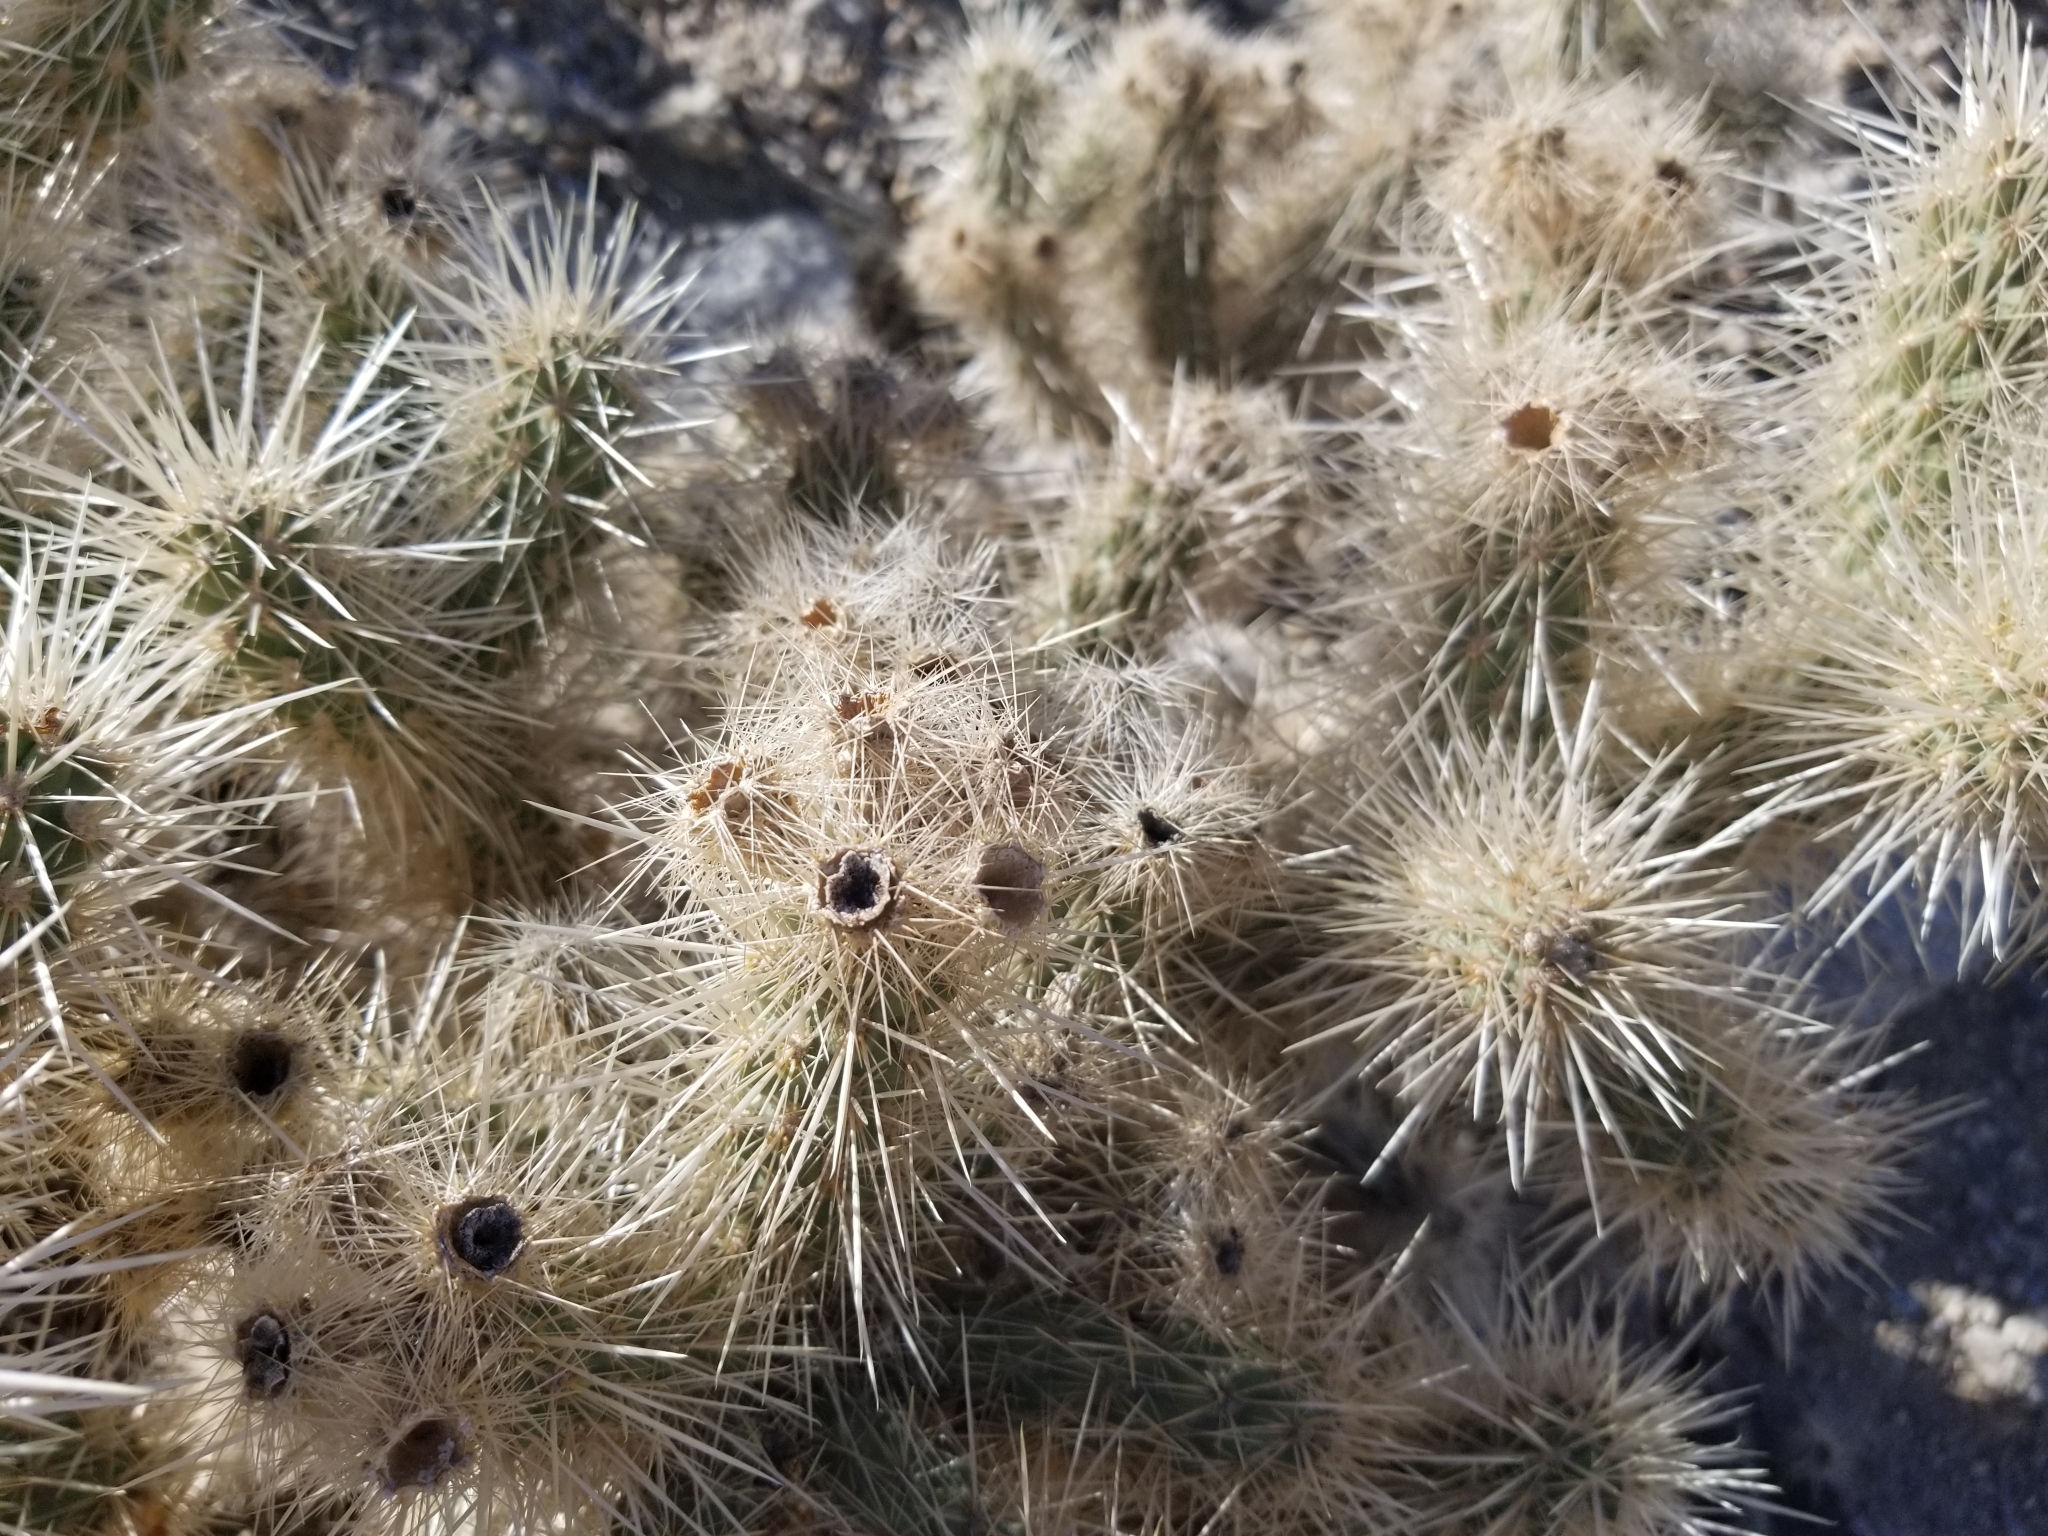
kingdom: Plantae
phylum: Tracheophyta
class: Magnoliopsida
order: Caryophyllales
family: Cactaceae
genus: Cylindropuntia
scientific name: Cylindropuntia chuckwallensis
